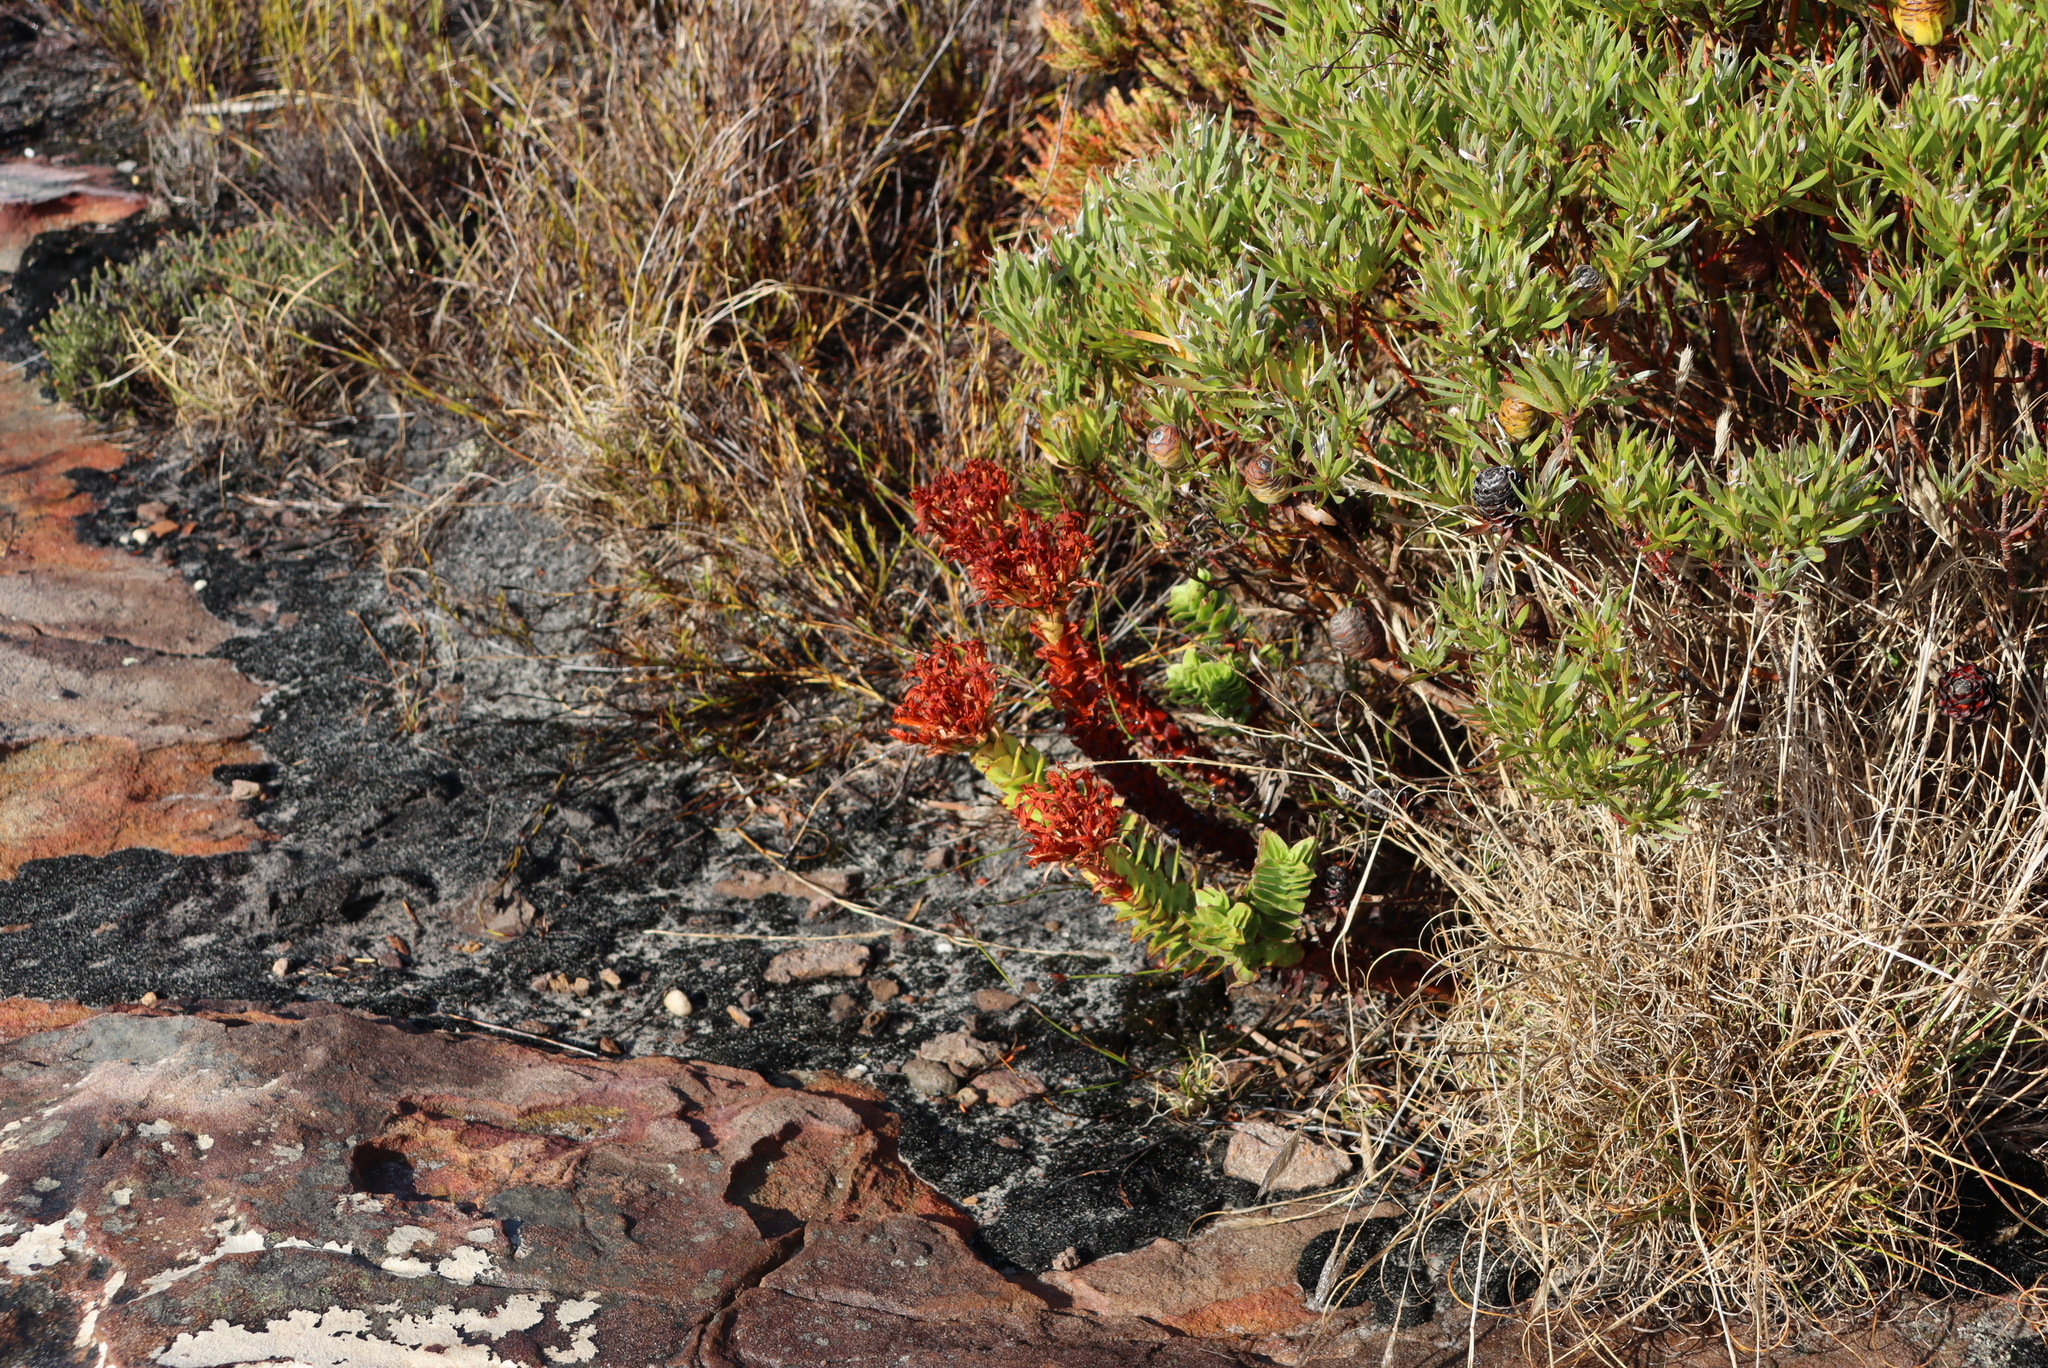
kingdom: Plantae
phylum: Tracheophyta
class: Magnoliopsida
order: Saxifragales
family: Crassulaceae
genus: Crassula
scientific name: Crassula coccinea
